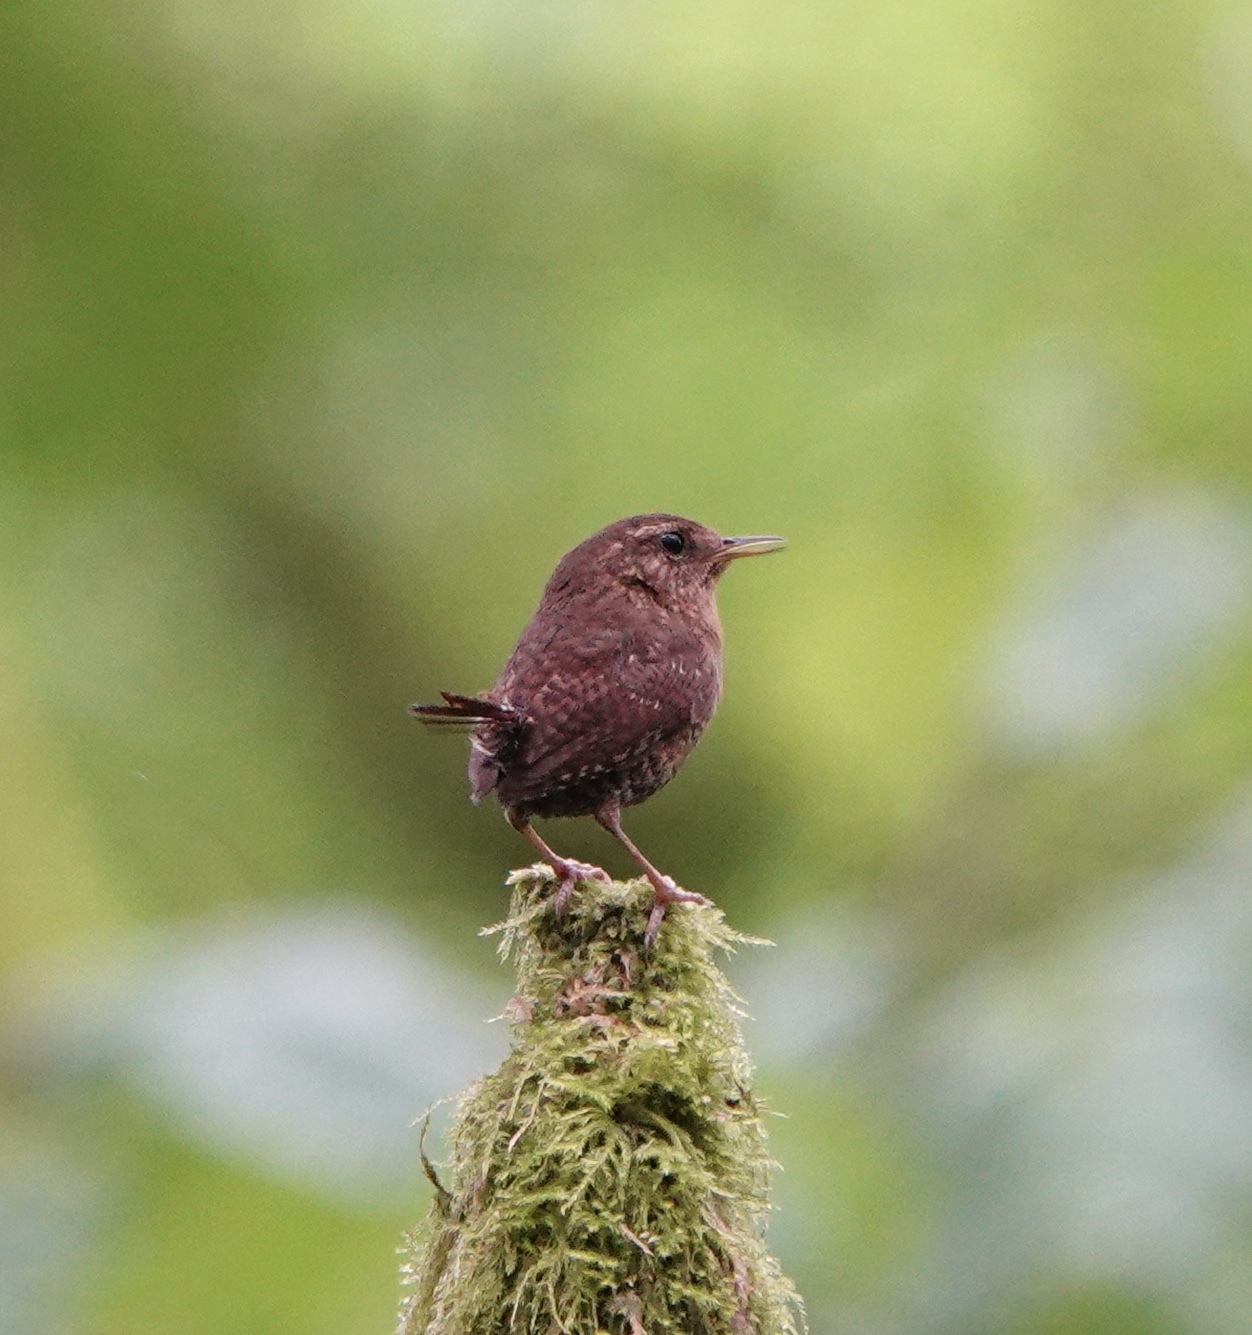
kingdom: Animalia
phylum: Chordata
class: Aves
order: Passeriformes
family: Troglodytidae
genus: Troglodytes
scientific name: Troglodytes pacificus
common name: Pacific wren
